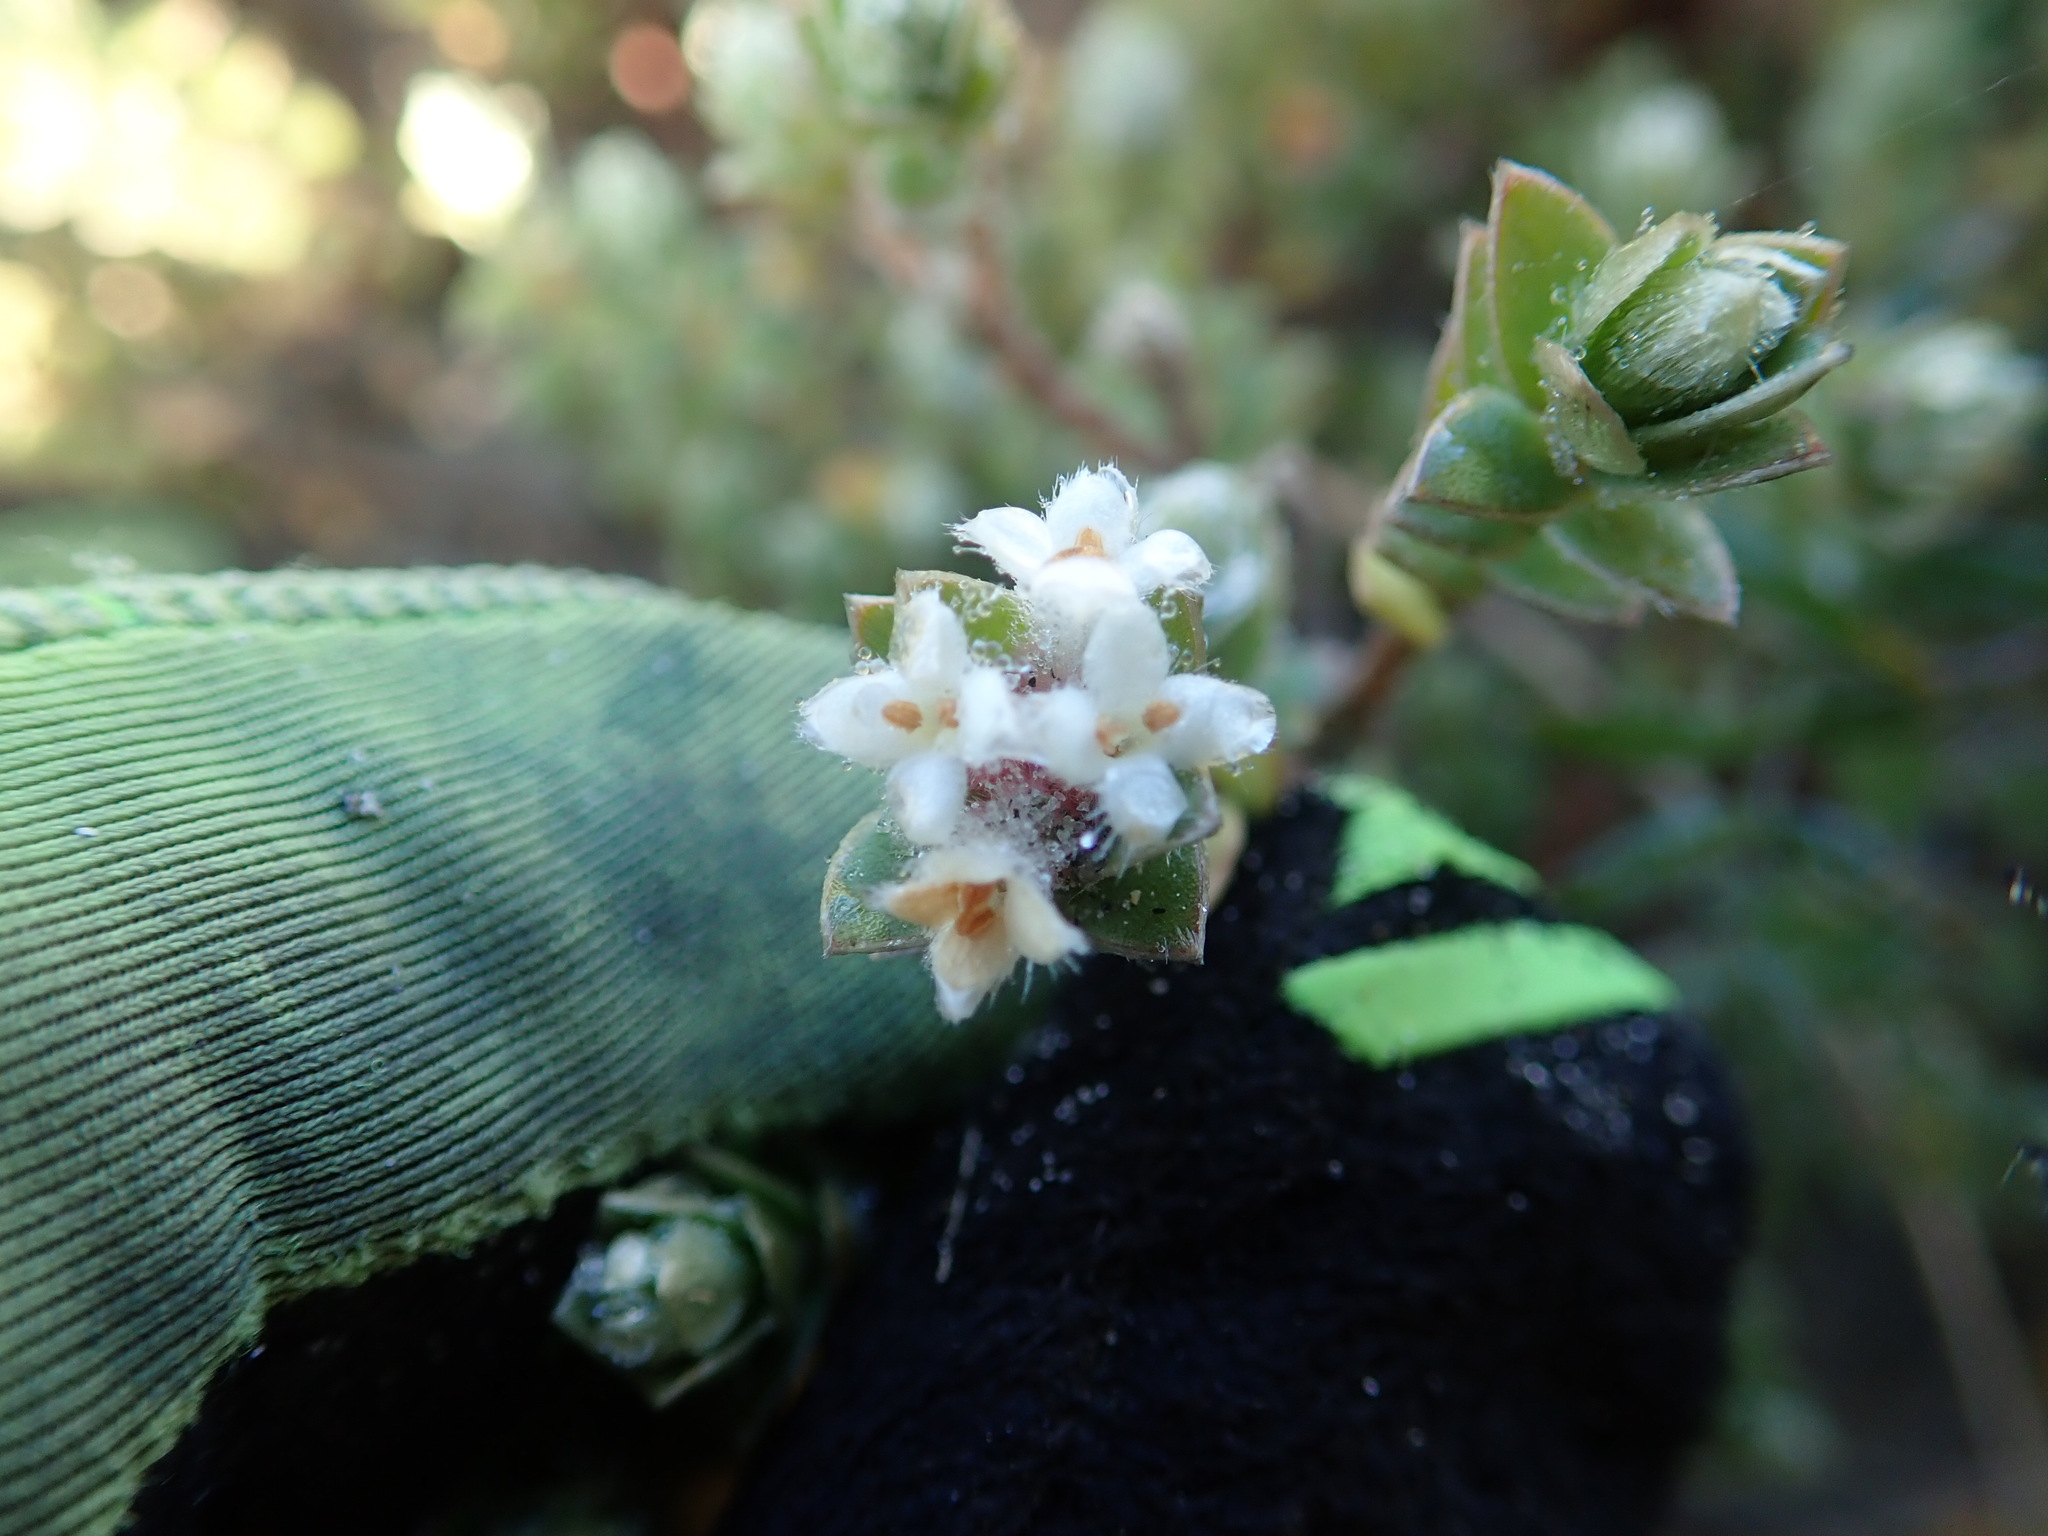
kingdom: Plantae
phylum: Tracheophyta
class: Magnoliopsida
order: Malvales
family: Thymelaeaceae
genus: Pimelea
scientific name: Pimelea villosa
